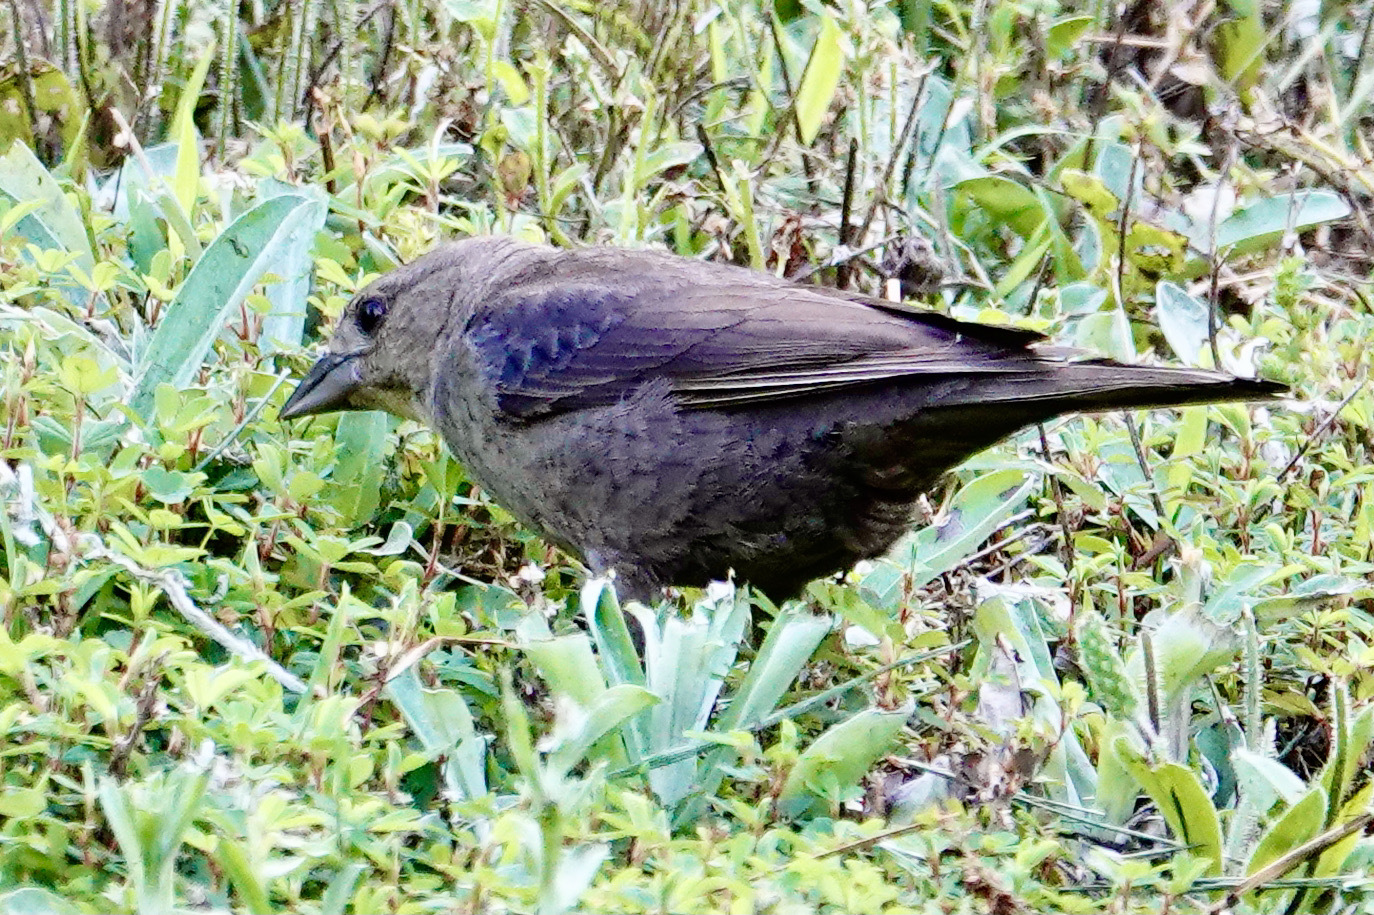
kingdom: Animalia
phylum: Chordata
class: Aves
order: Passeriformes
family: Icteridae
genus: Molothrus
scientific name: Molothrus ater
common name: Brown-headed cowbird
